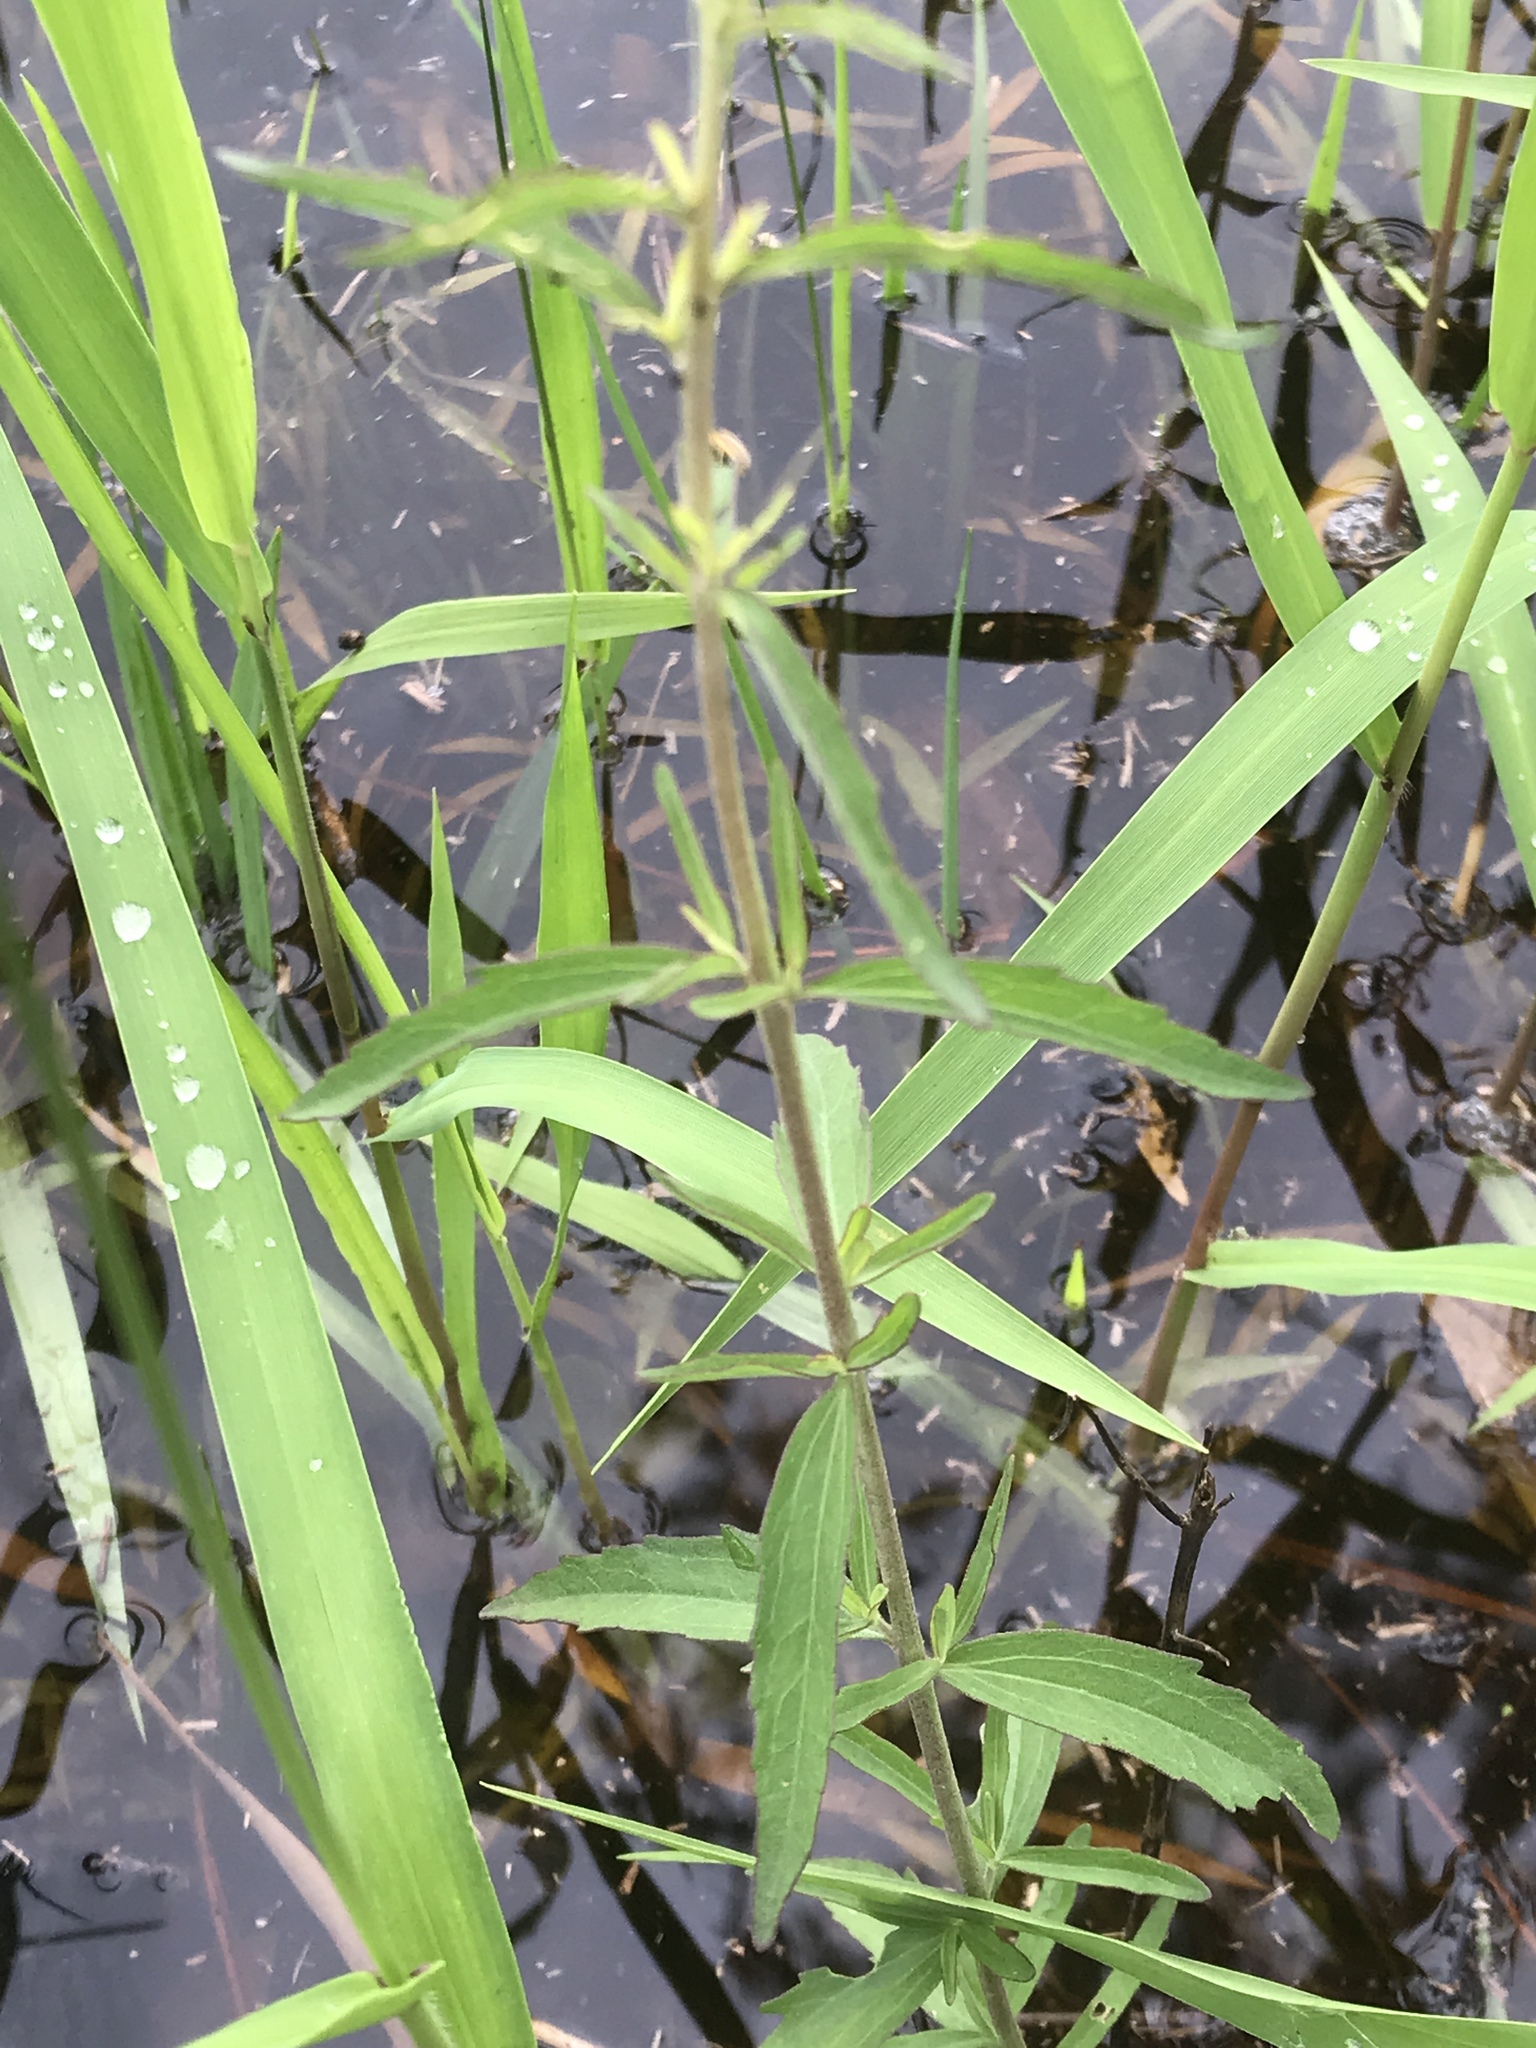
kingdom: Plantae
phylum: Tracheophyta
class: Magnoliopsida
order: Asterales
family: Asteraceae
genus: Eupatorium
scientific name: Eupatorium mohrii
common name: Mohr's thoroughwort
